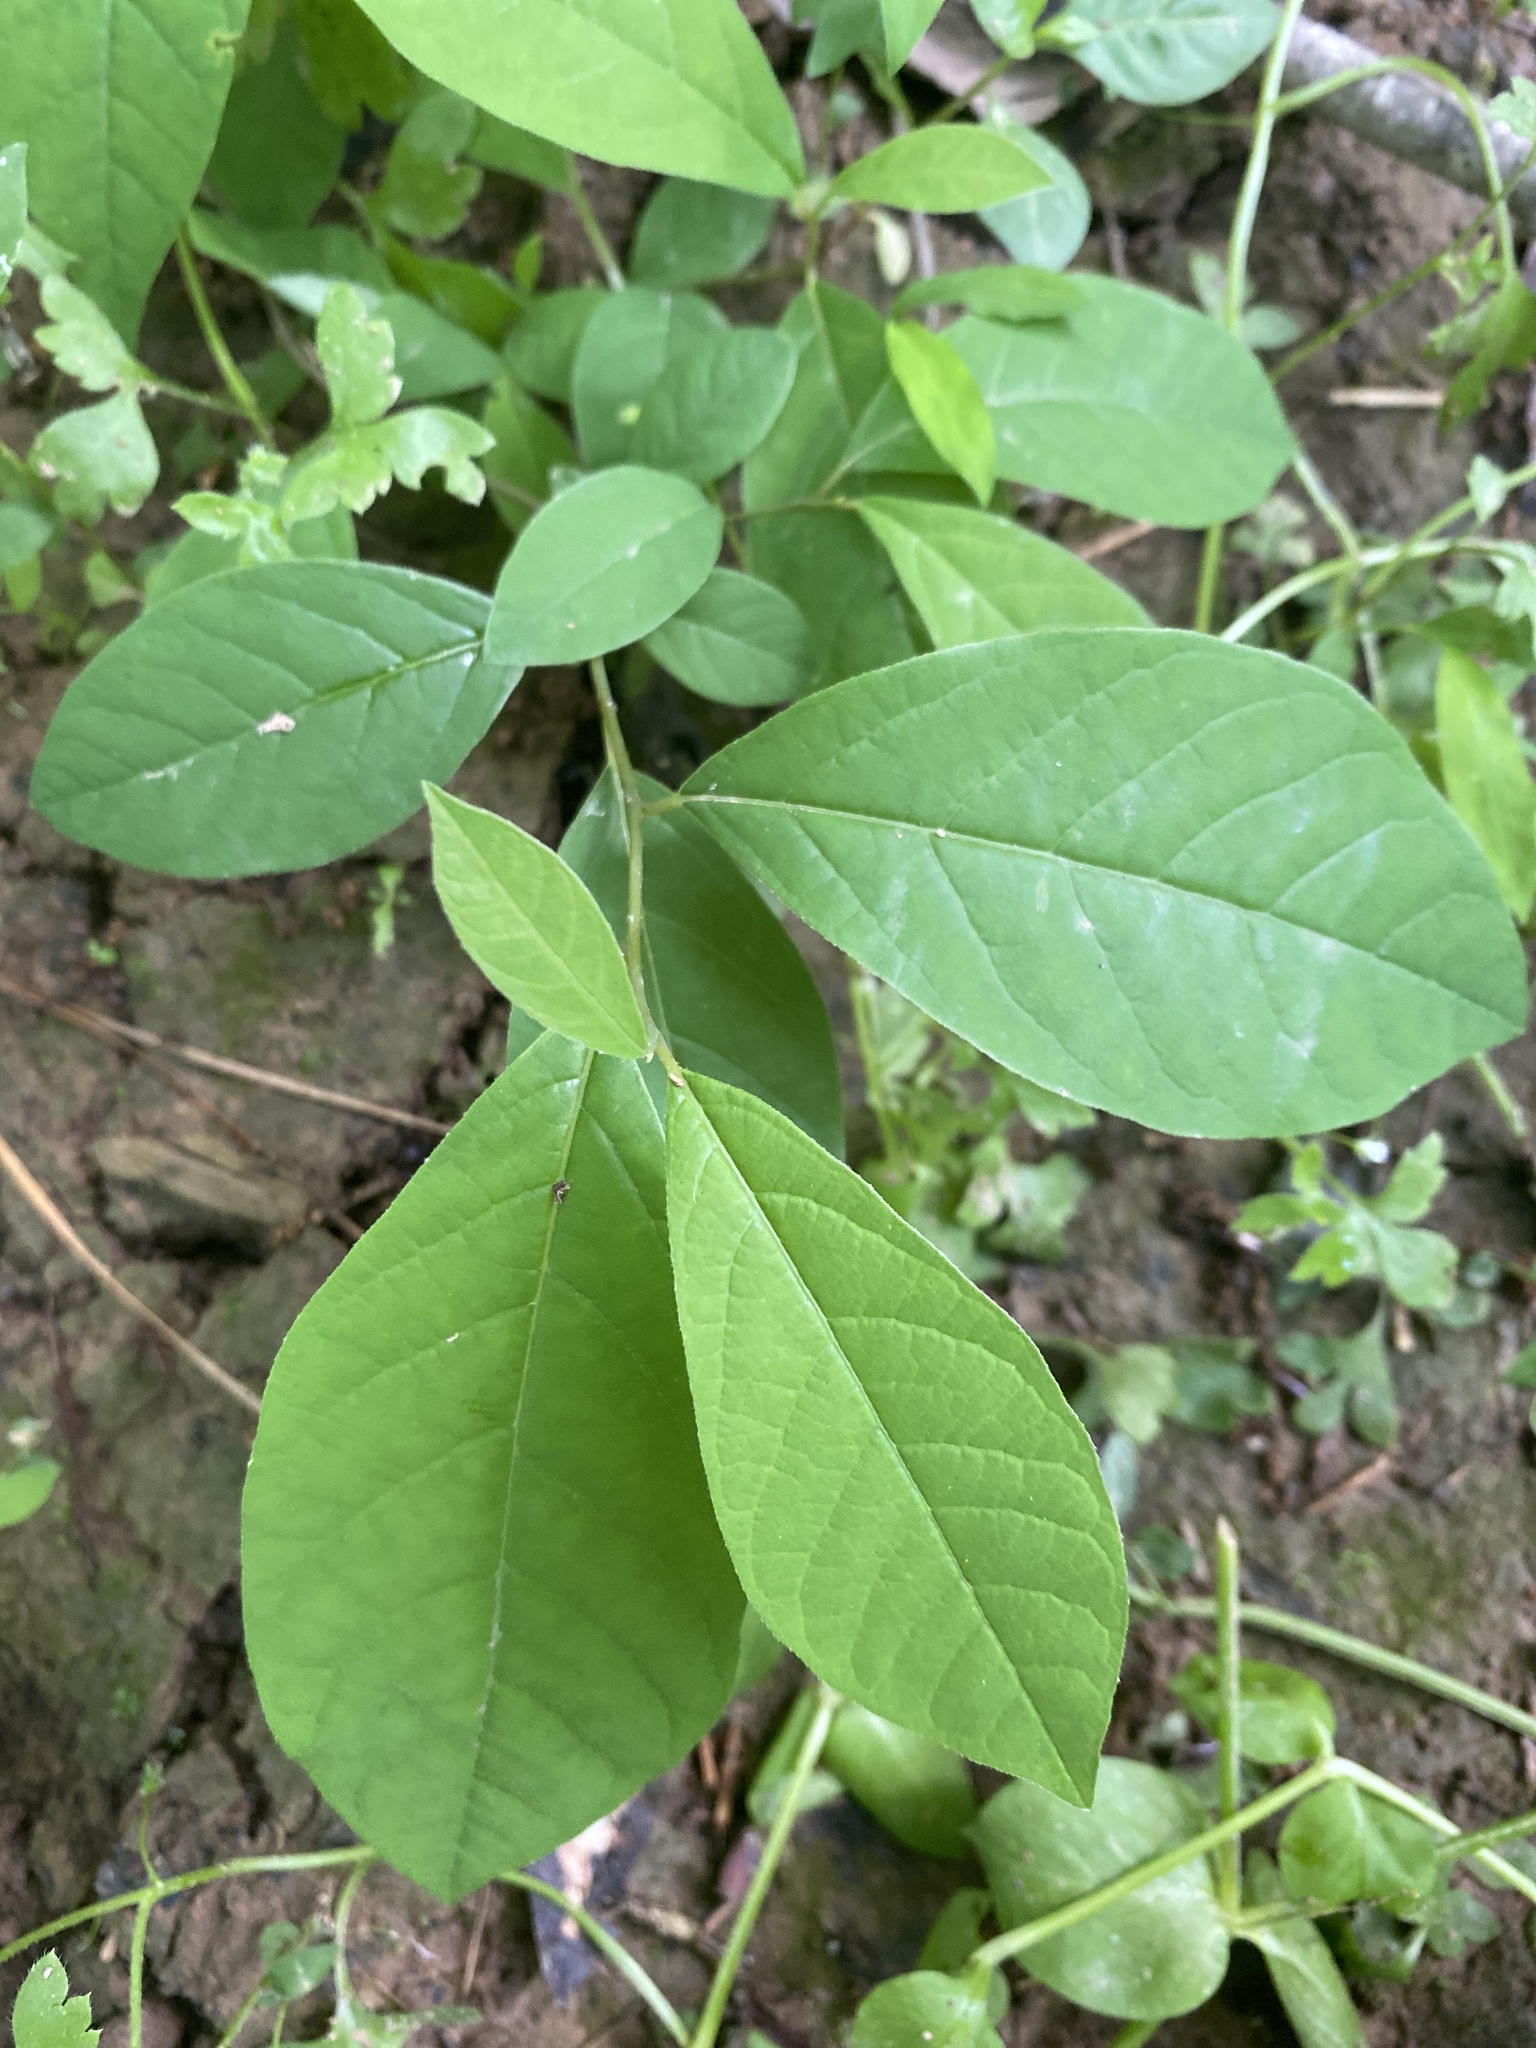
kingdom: Plantae
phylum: Tracheophyta
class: Magnoliopsida
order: Laurales
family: Lauraceae
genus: Lindera
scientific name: Lindera benzoin
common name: Spicebush
